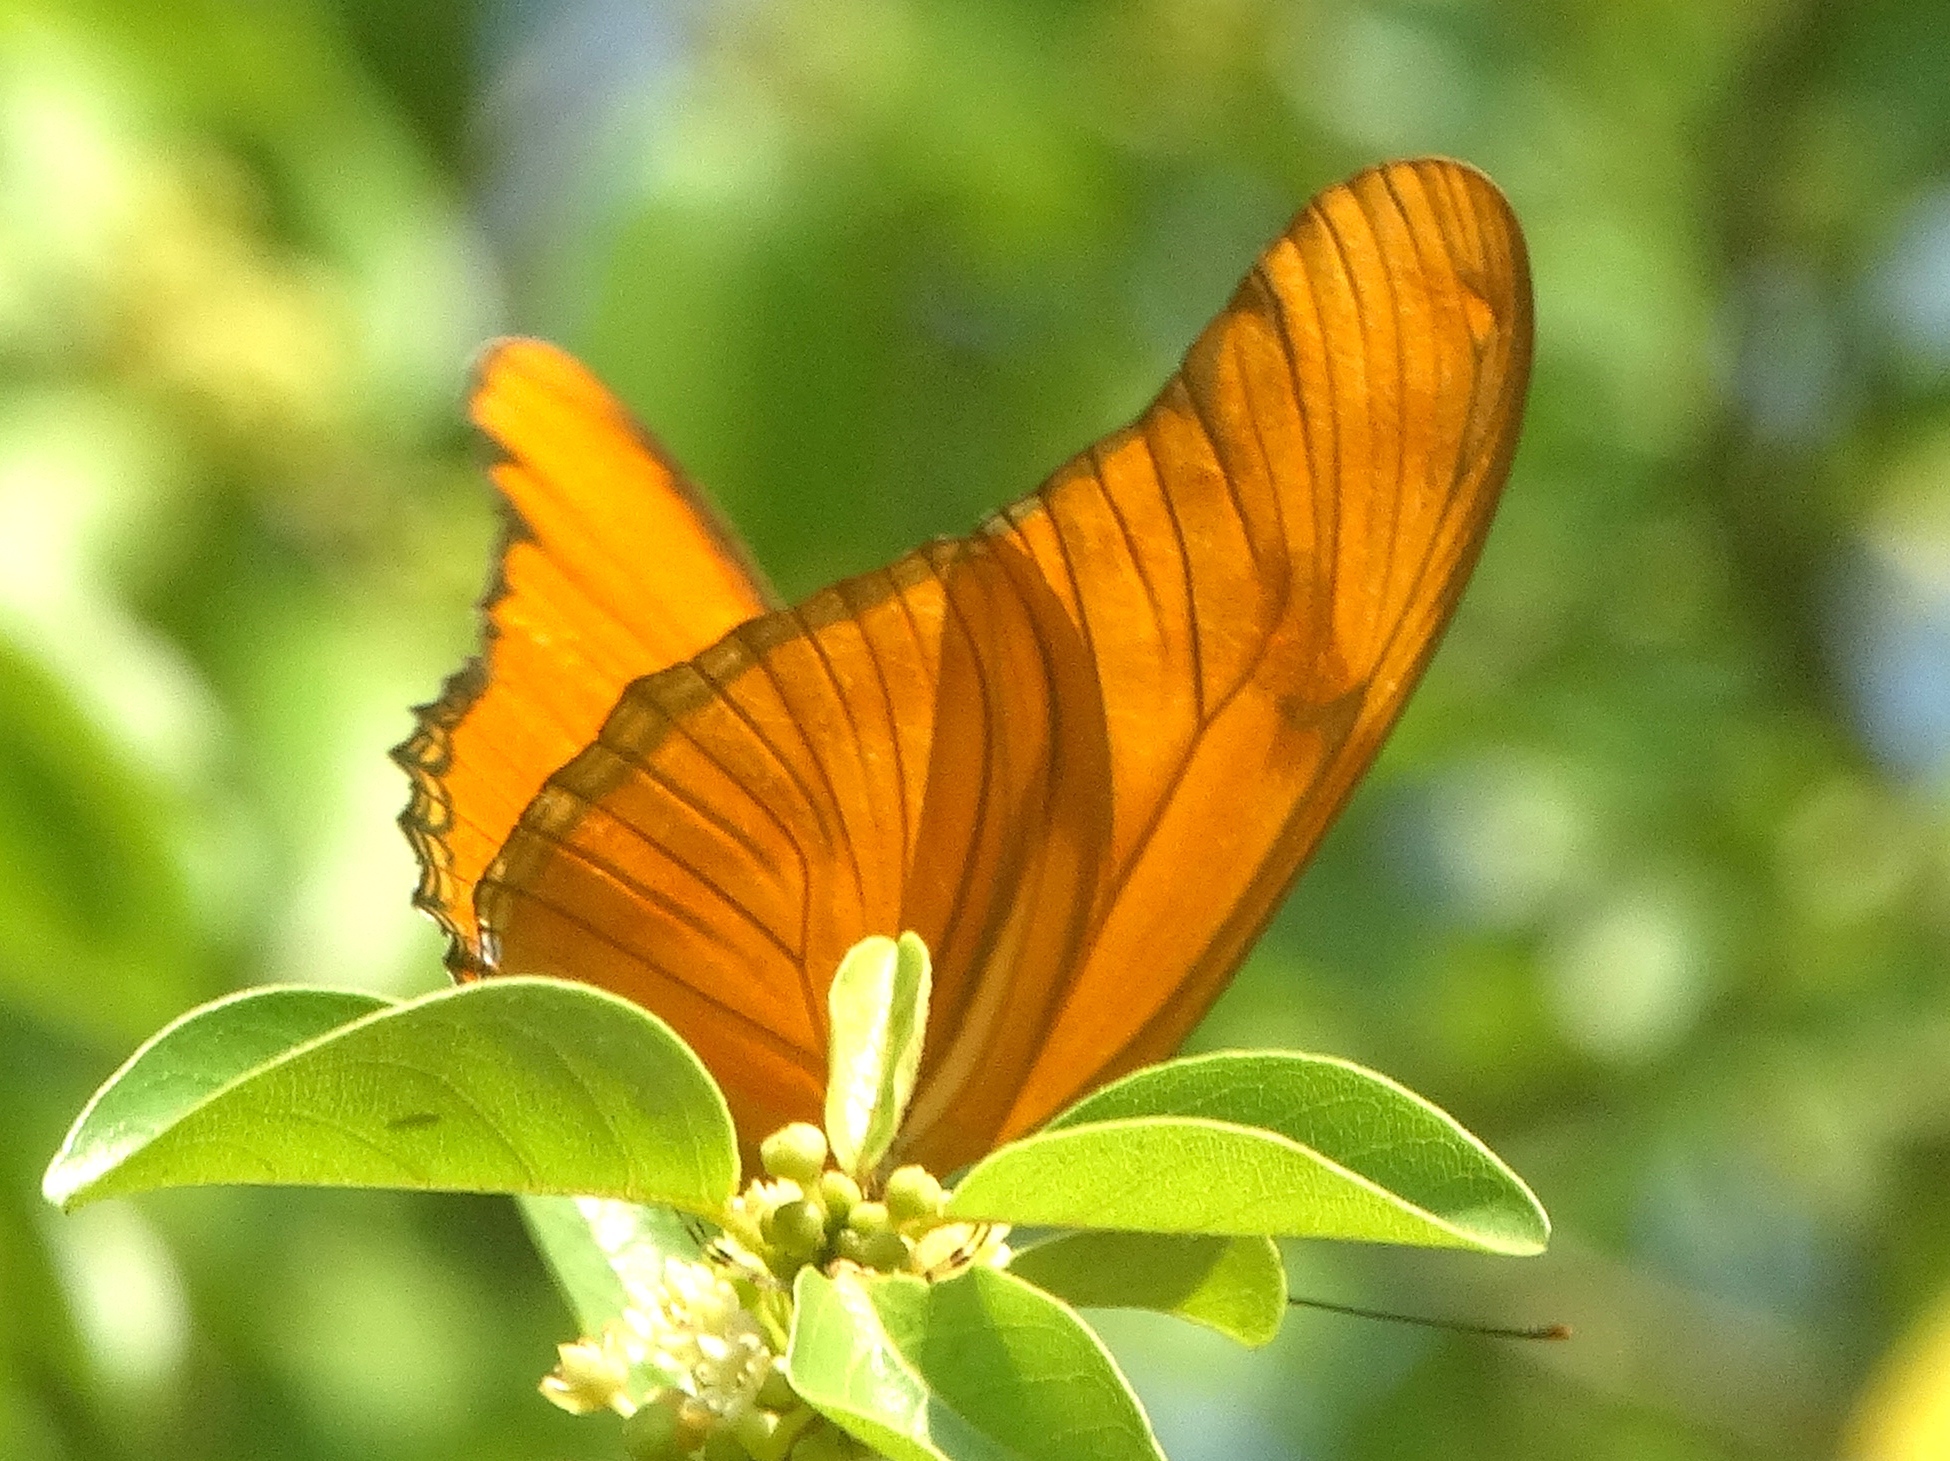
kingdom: Animalia
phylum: Arthropoda
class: Insecta
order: Lepidoptera
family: Nymphalidae
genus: Dryas
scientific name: Dryas iulia
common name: Flambeau
